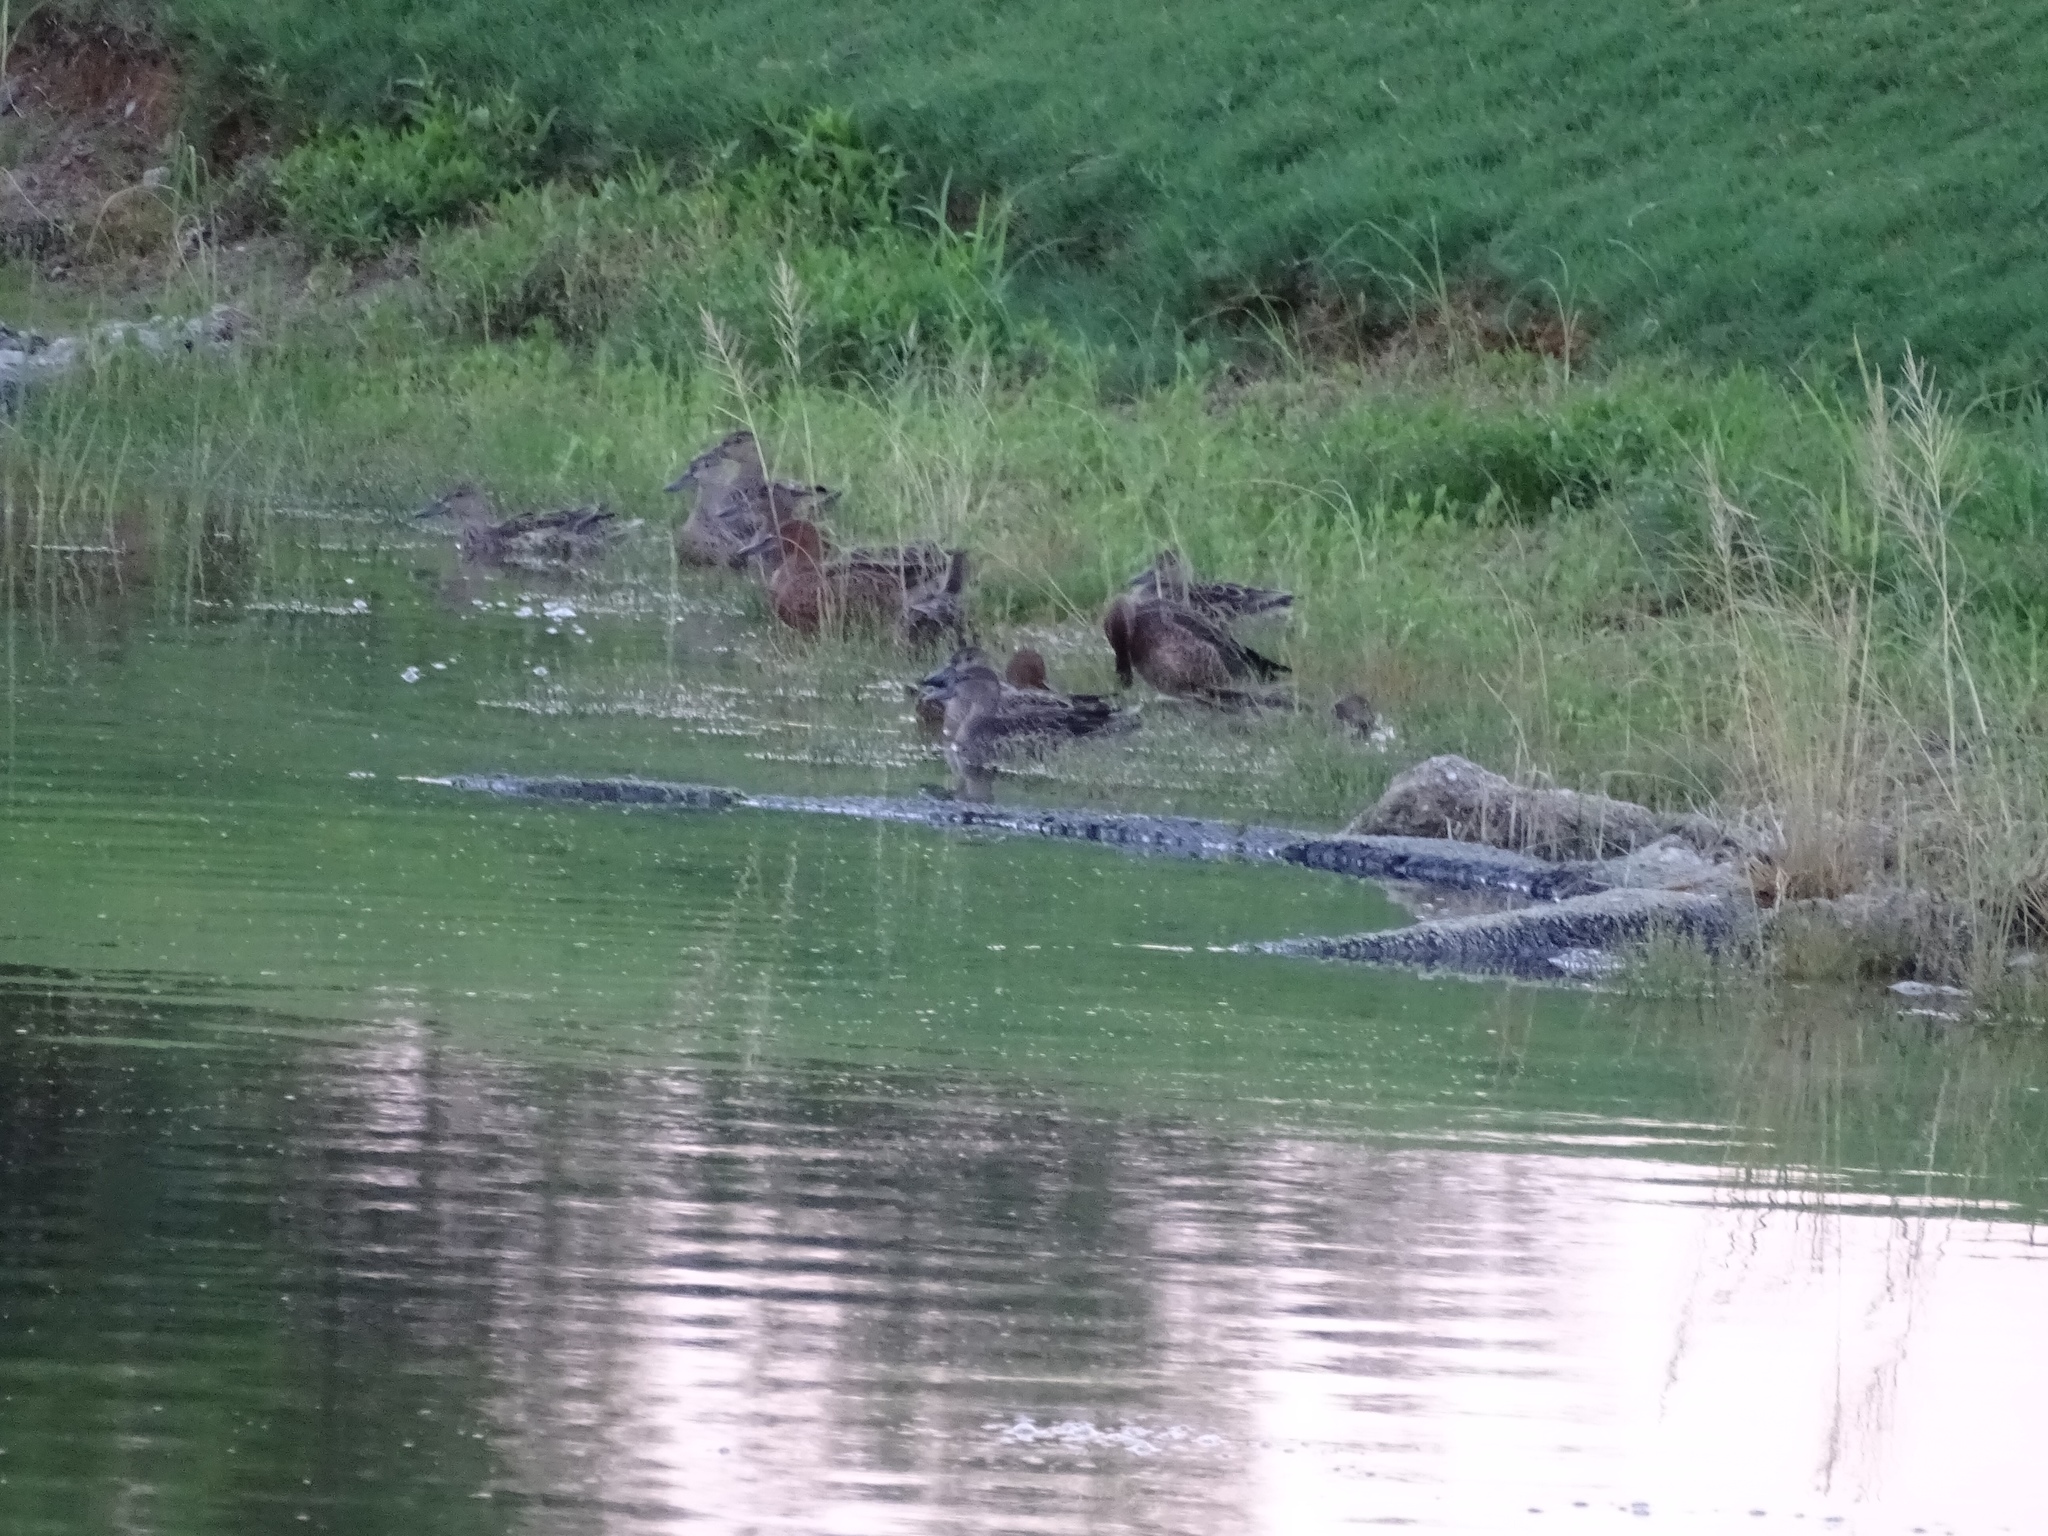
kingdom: Animalia
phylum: Chordata
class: Aves
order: Anseriformes
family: Anatidae
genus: Spatula
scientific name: Spatula cyanoptera
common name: Cinnamon teal
